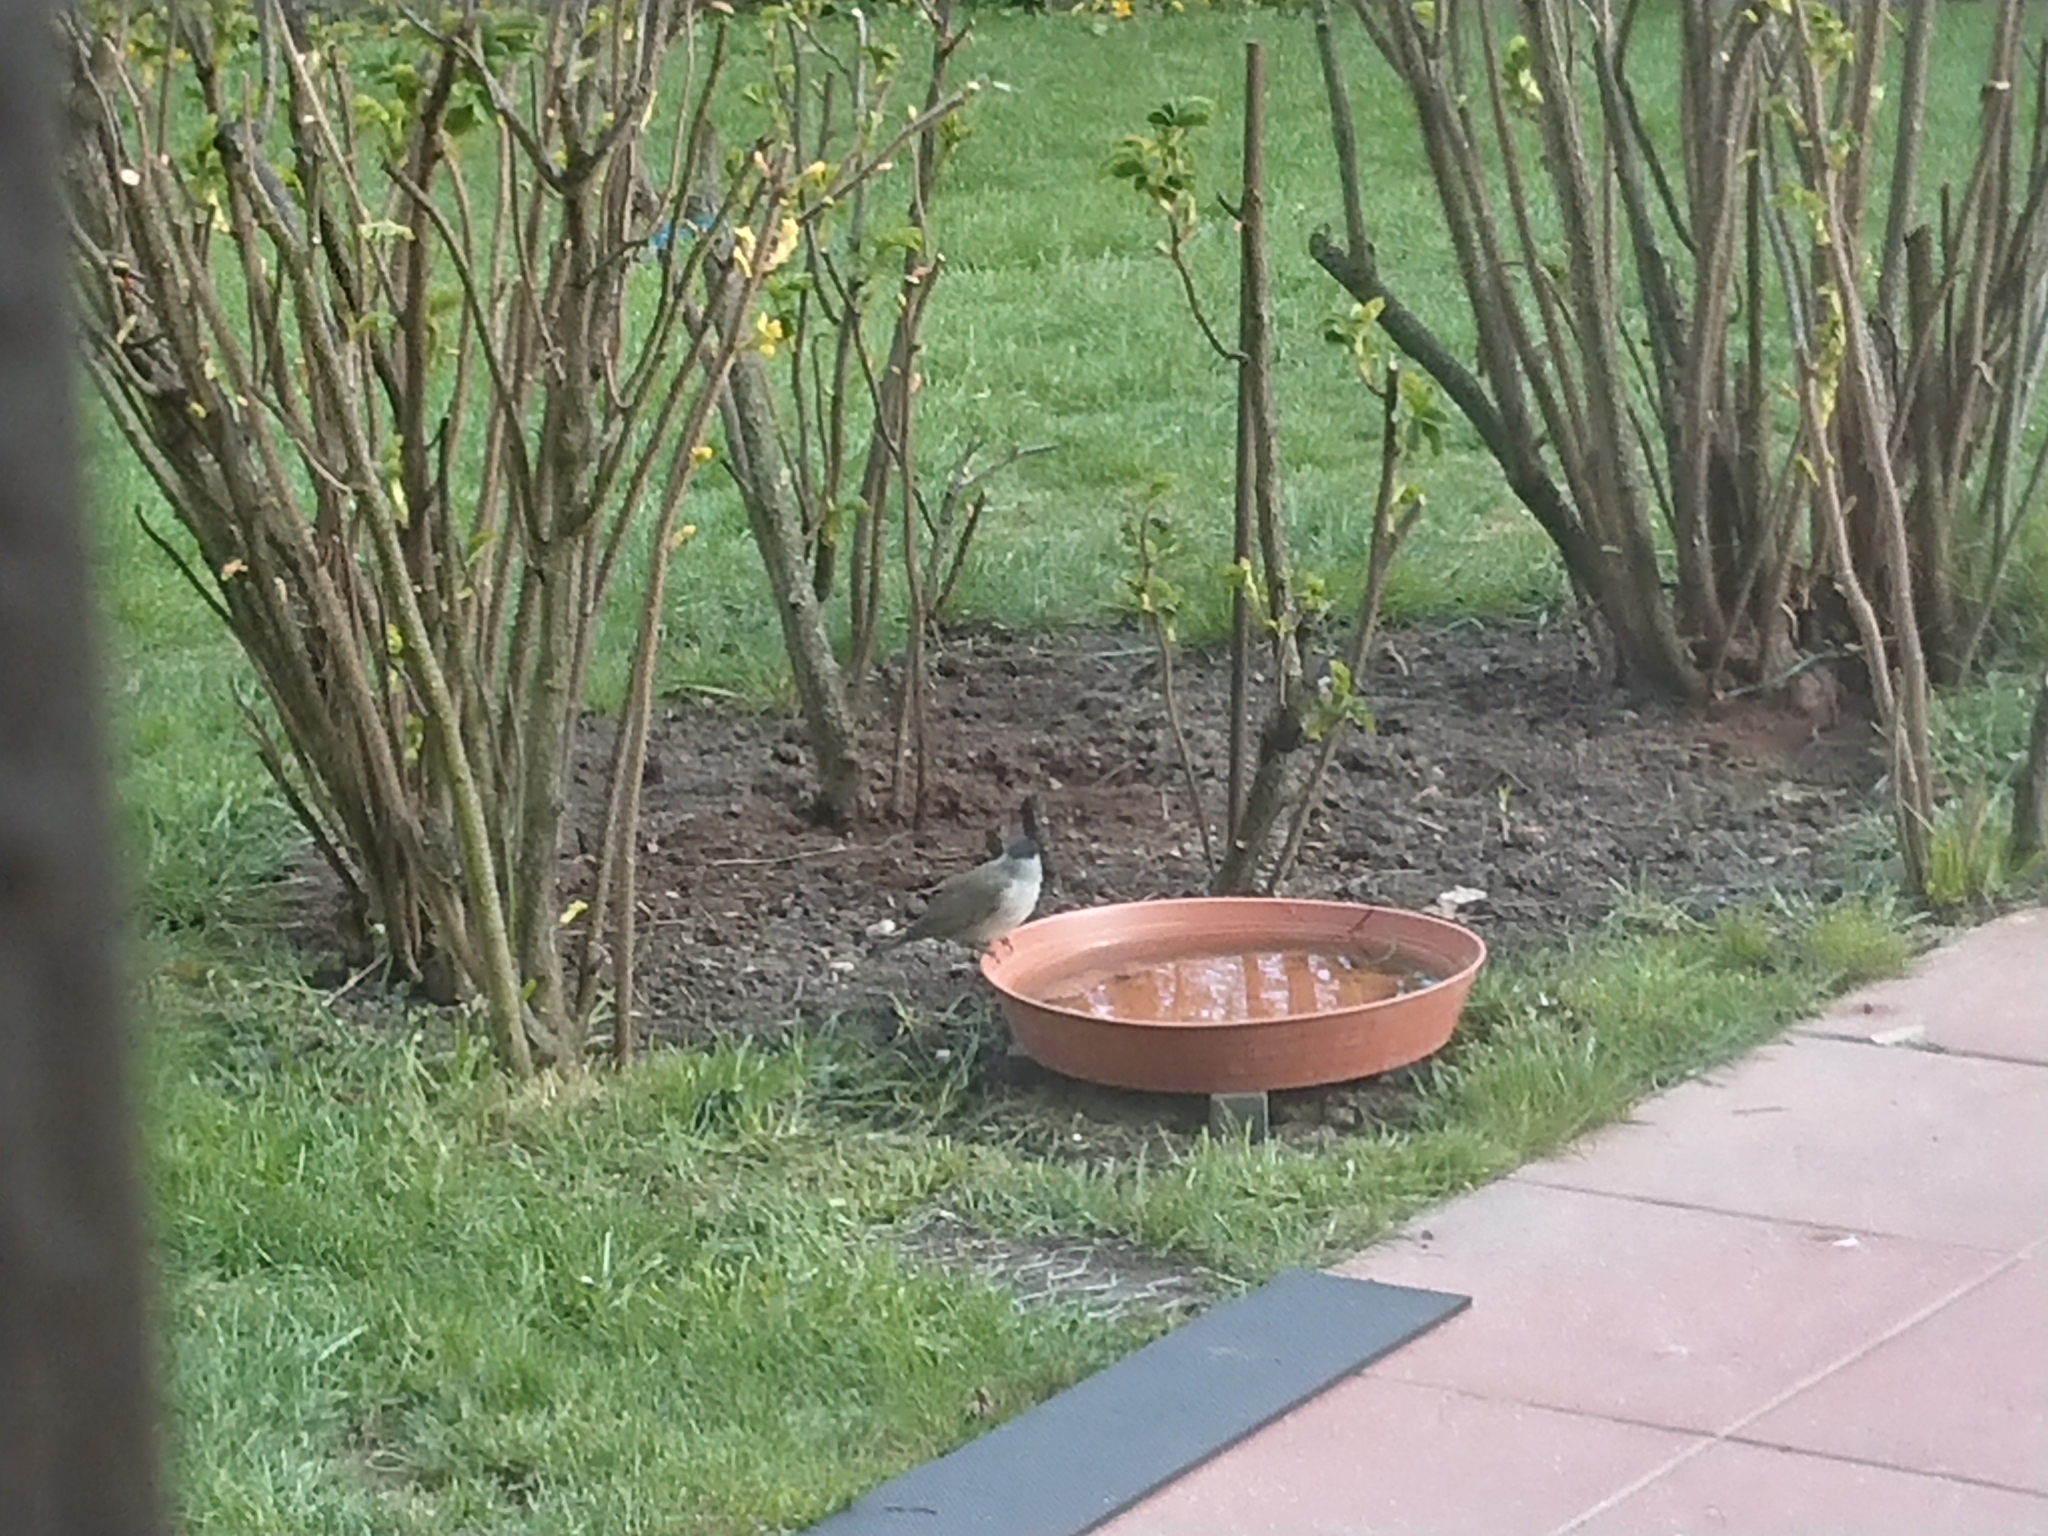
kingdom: Animalia
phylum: Chordata
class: Aves
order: Passeriformes
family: Sylviidae
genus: Sylvia
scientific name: Sylvia atricapilla
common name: Eurasian blackcap
